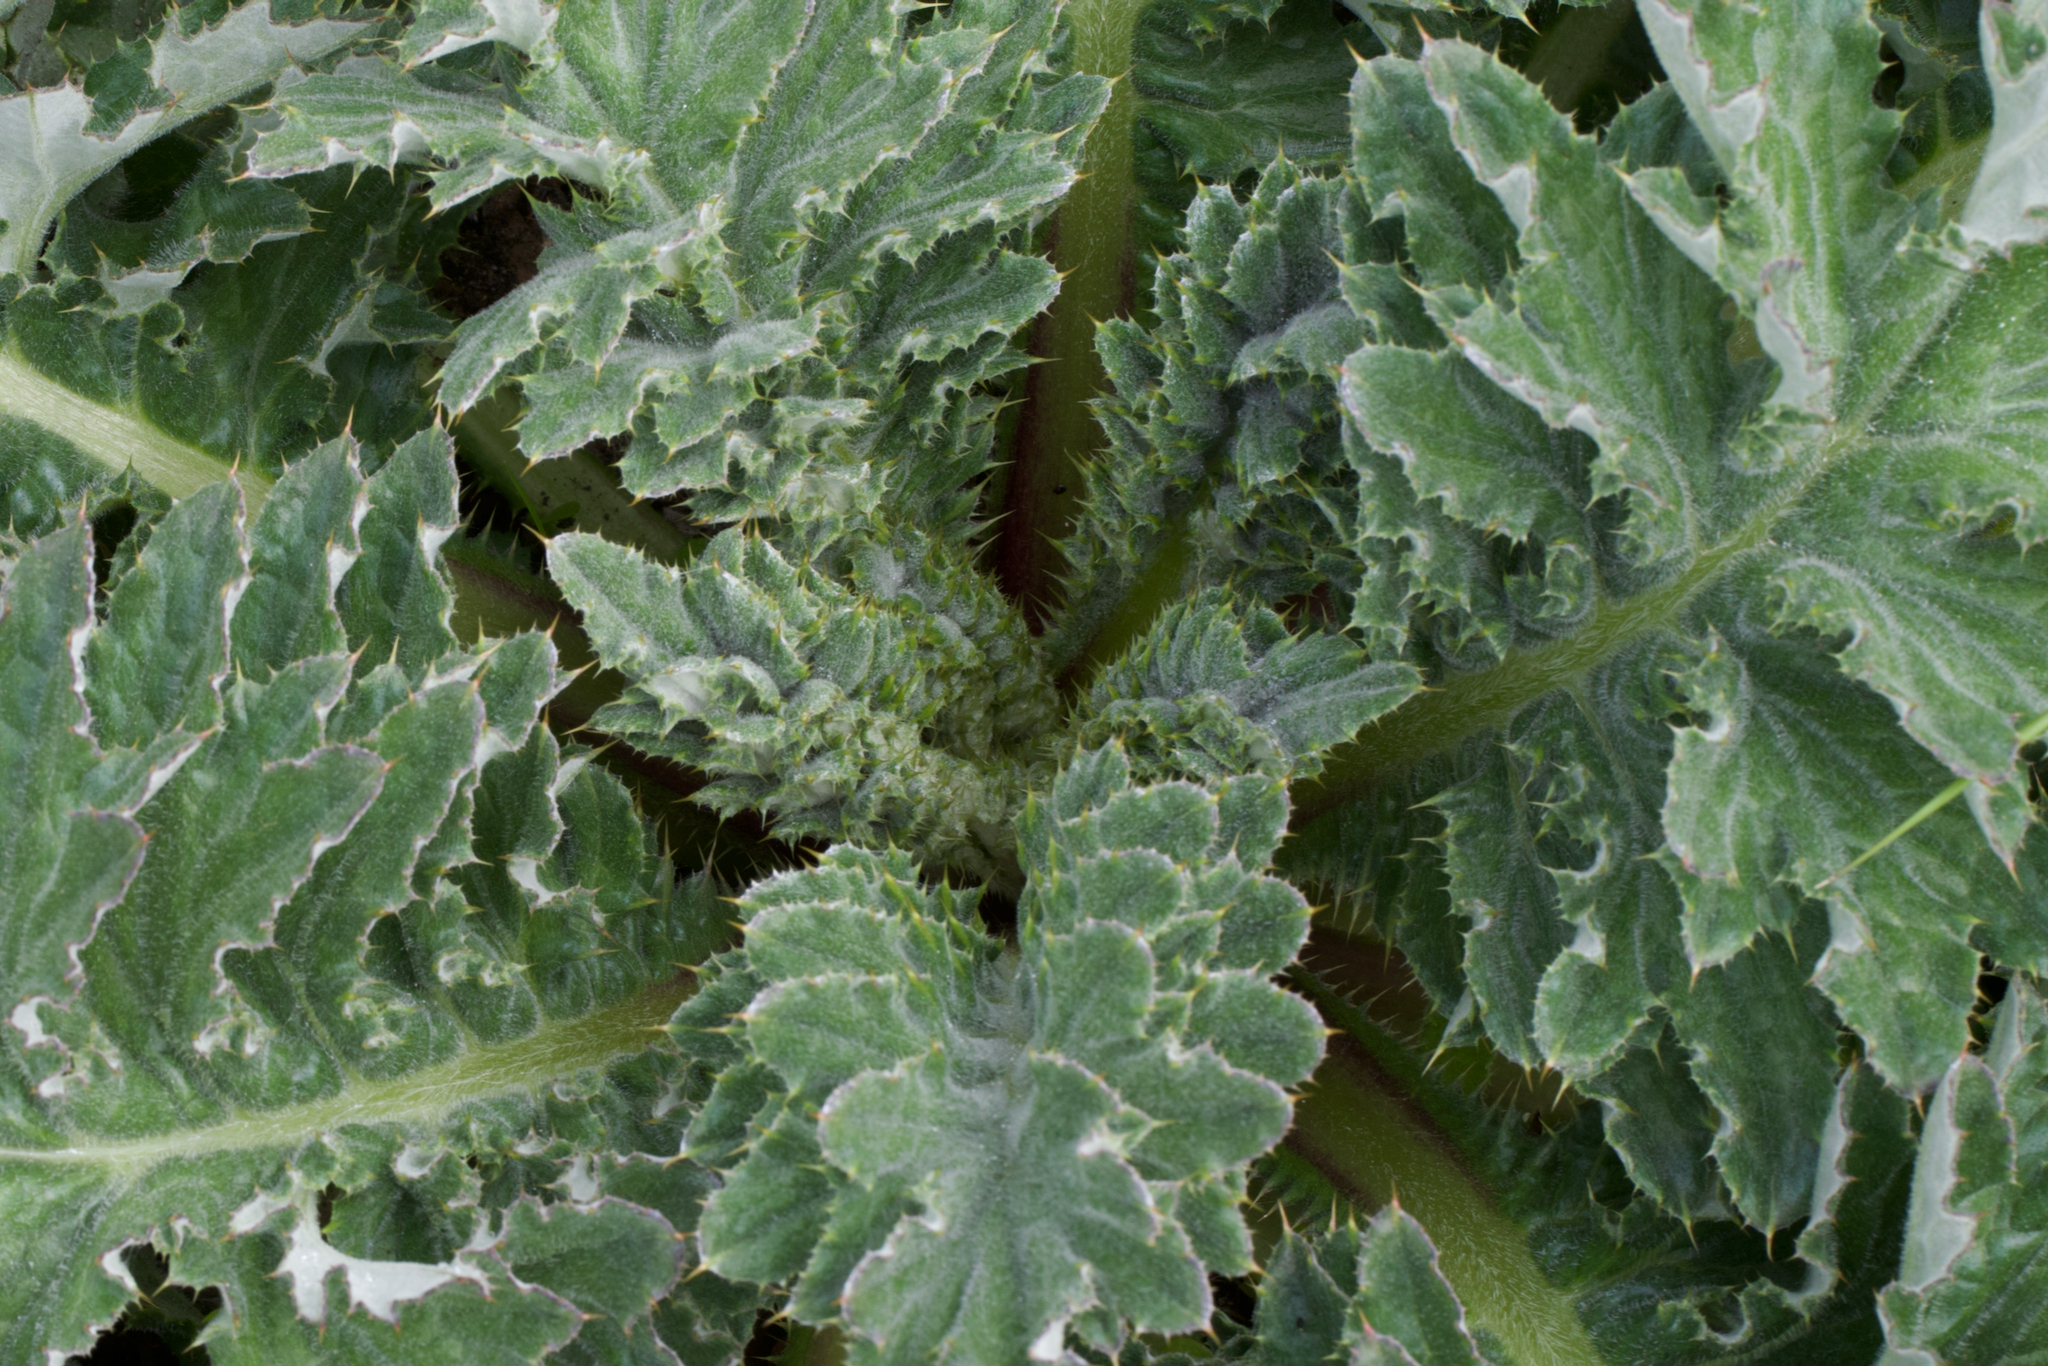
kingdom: Plantae
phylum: Tracheophyta
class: Magnoliopsida
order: Asterales
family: Asteraceae
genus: Cirsium
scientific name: Cirsium andrewsii
